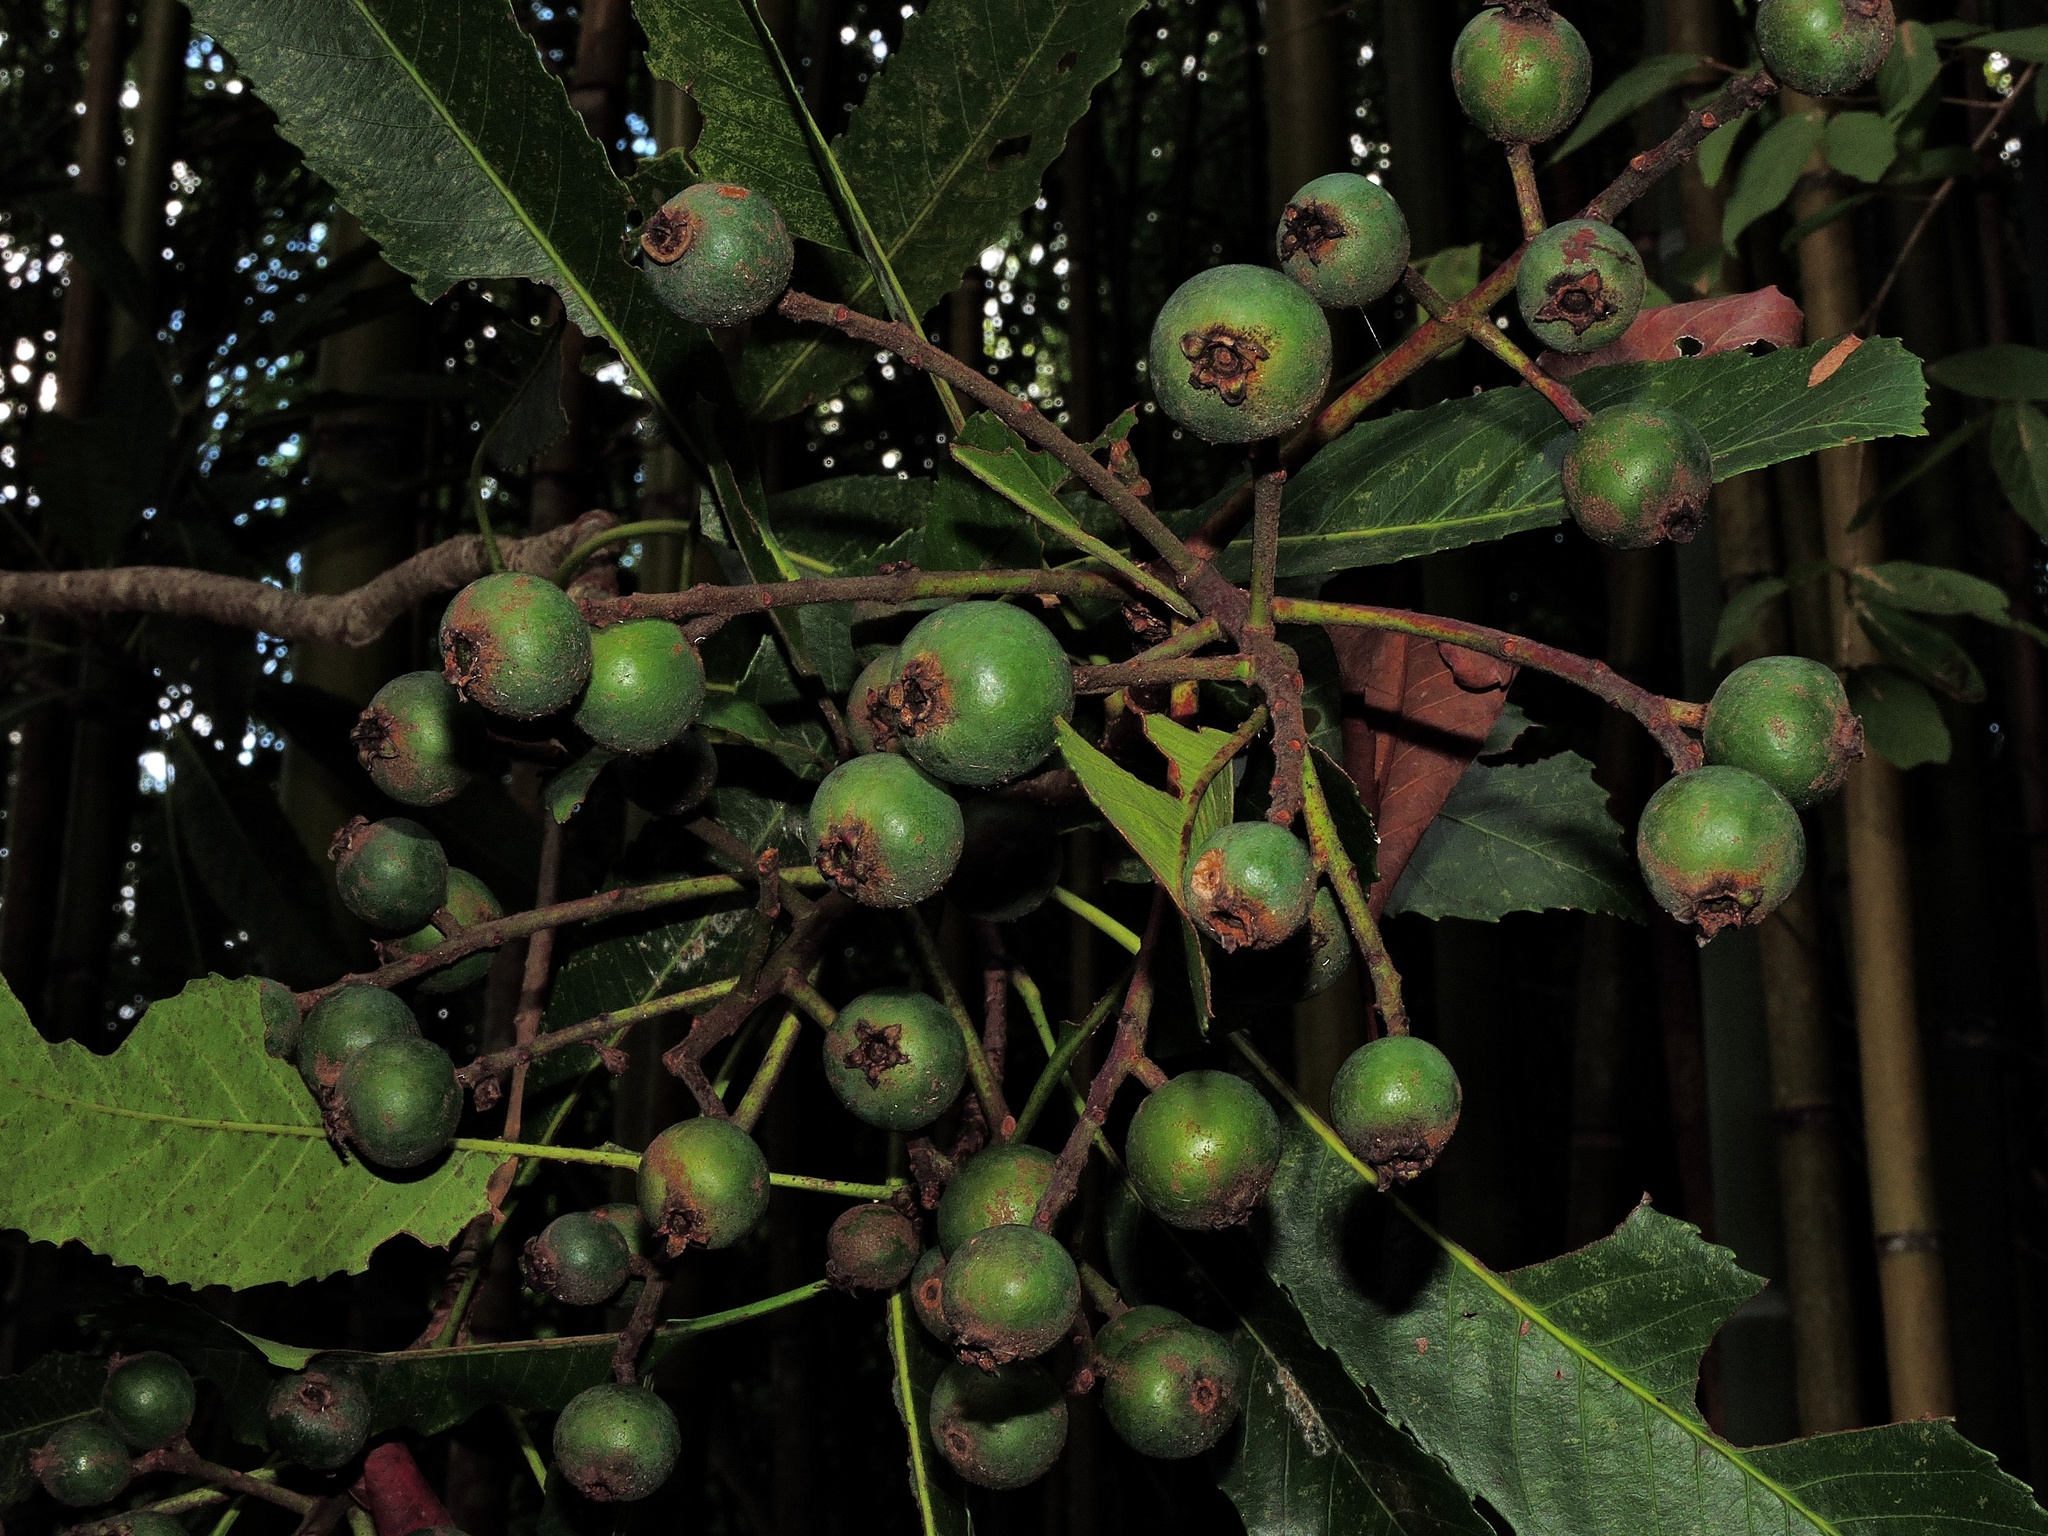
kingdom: Plantae
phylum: Tracheophyta
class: Magnoliopsida
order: Rosales
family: Rosaceae
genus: Rhaphiolepis
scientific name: Rhaphiolepis deflexa
